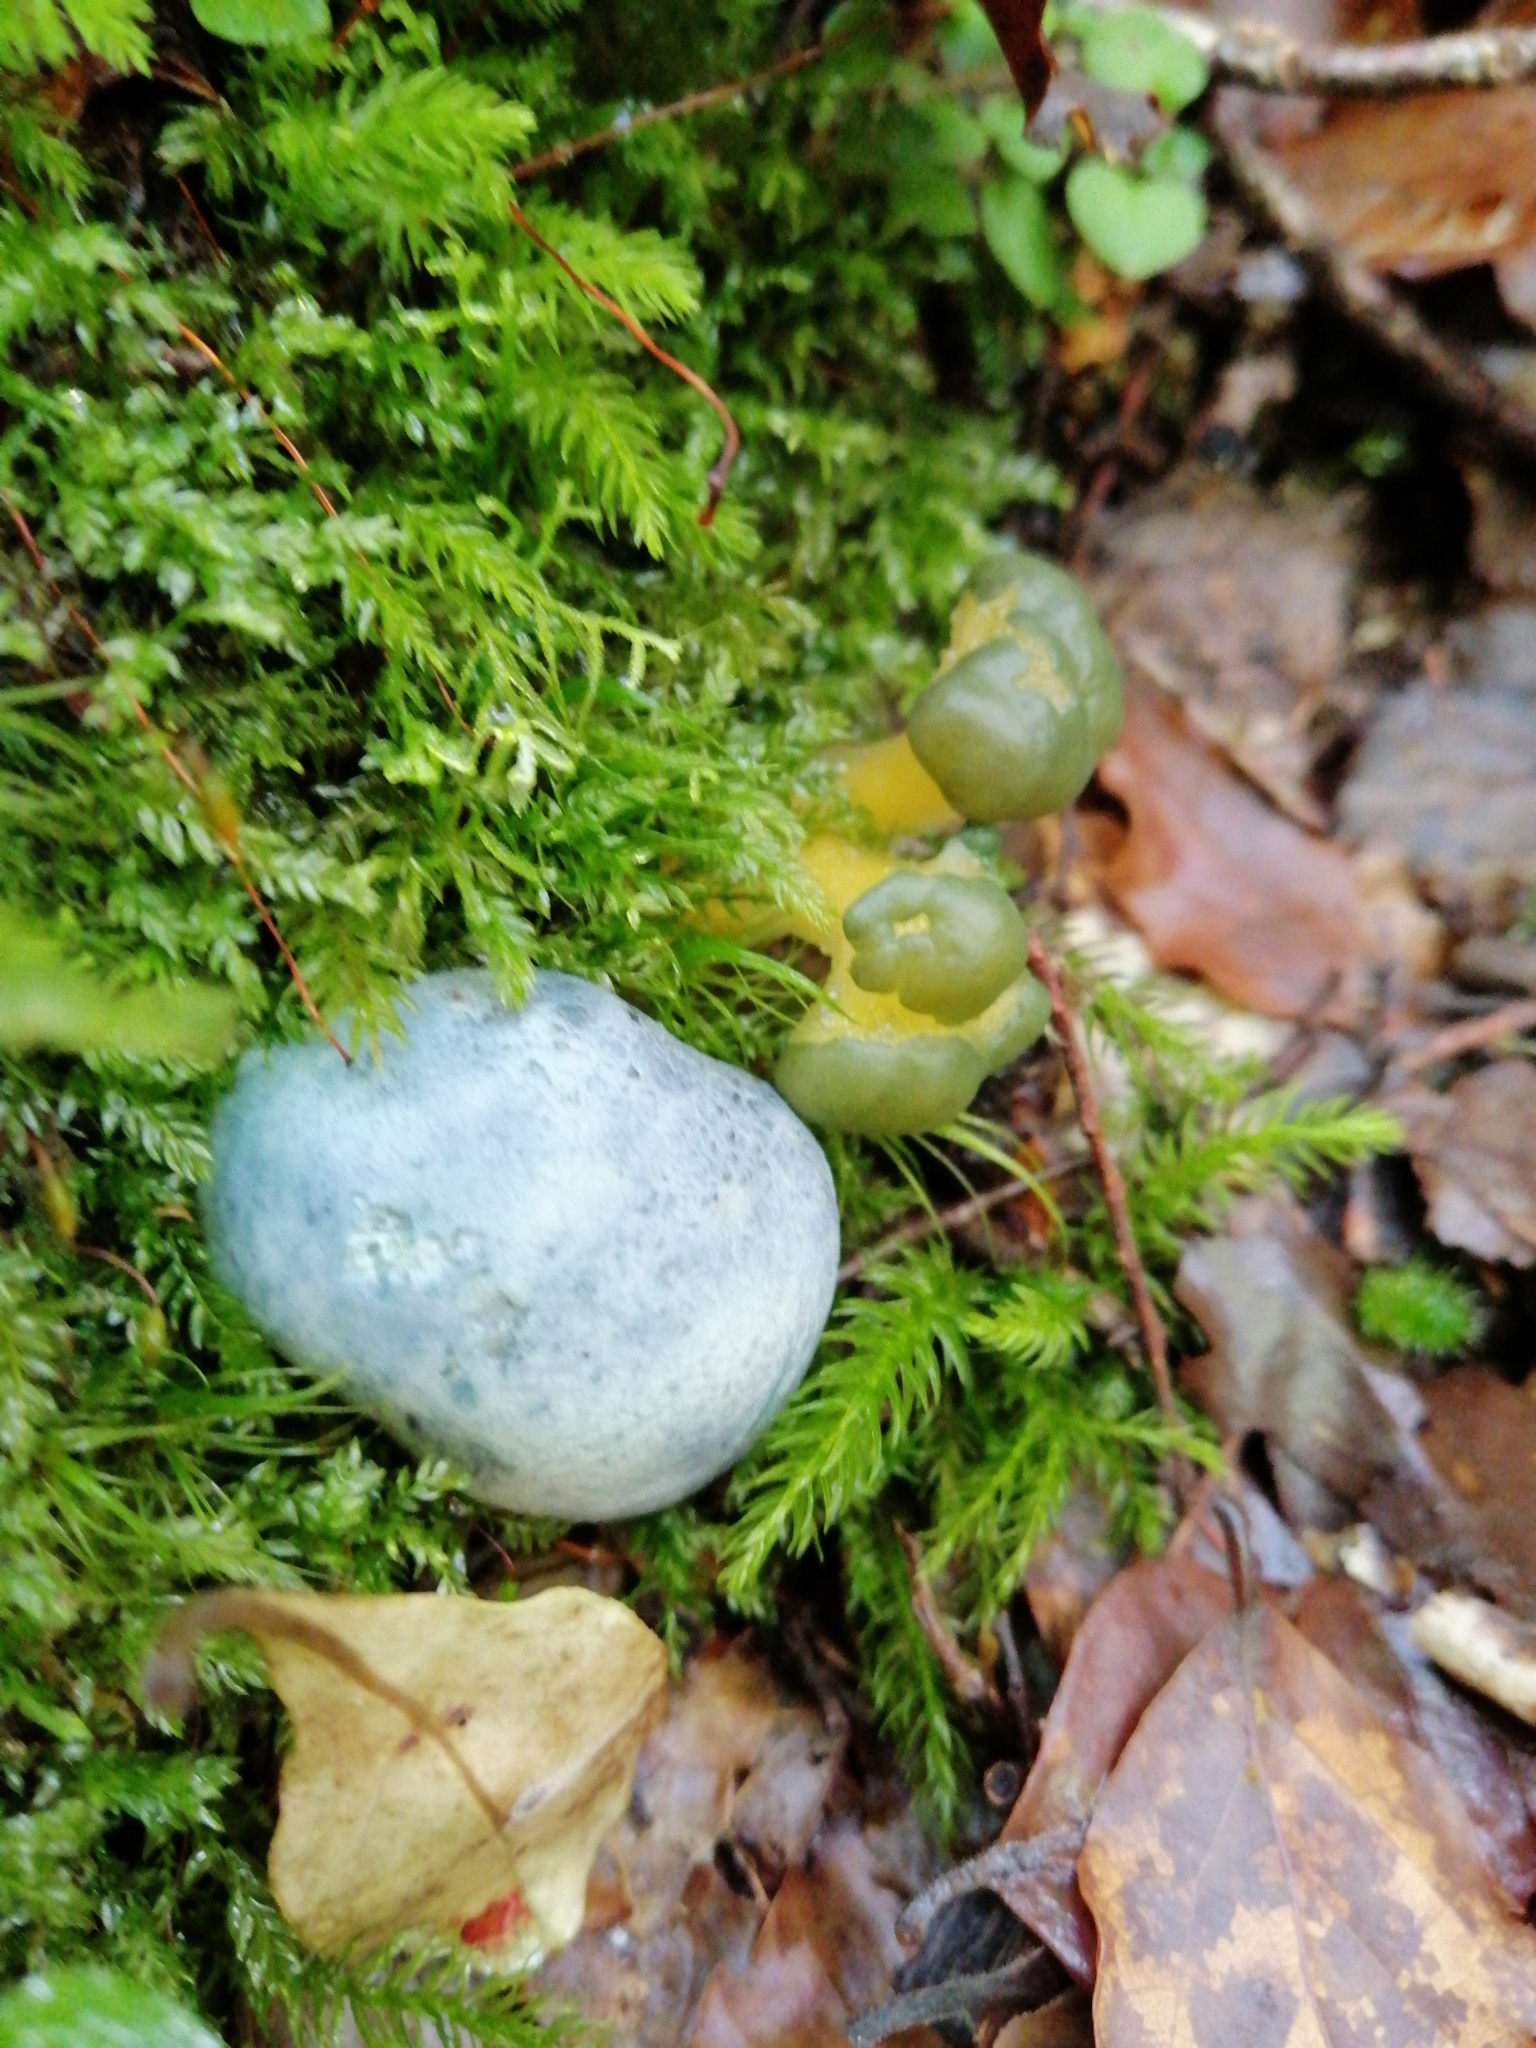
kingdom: Fungi
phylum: Basidiomycota
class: Agaricomycetes
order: Boletales
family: Boletaceae
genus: Leccinum
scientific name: Leccinum pachyderme
